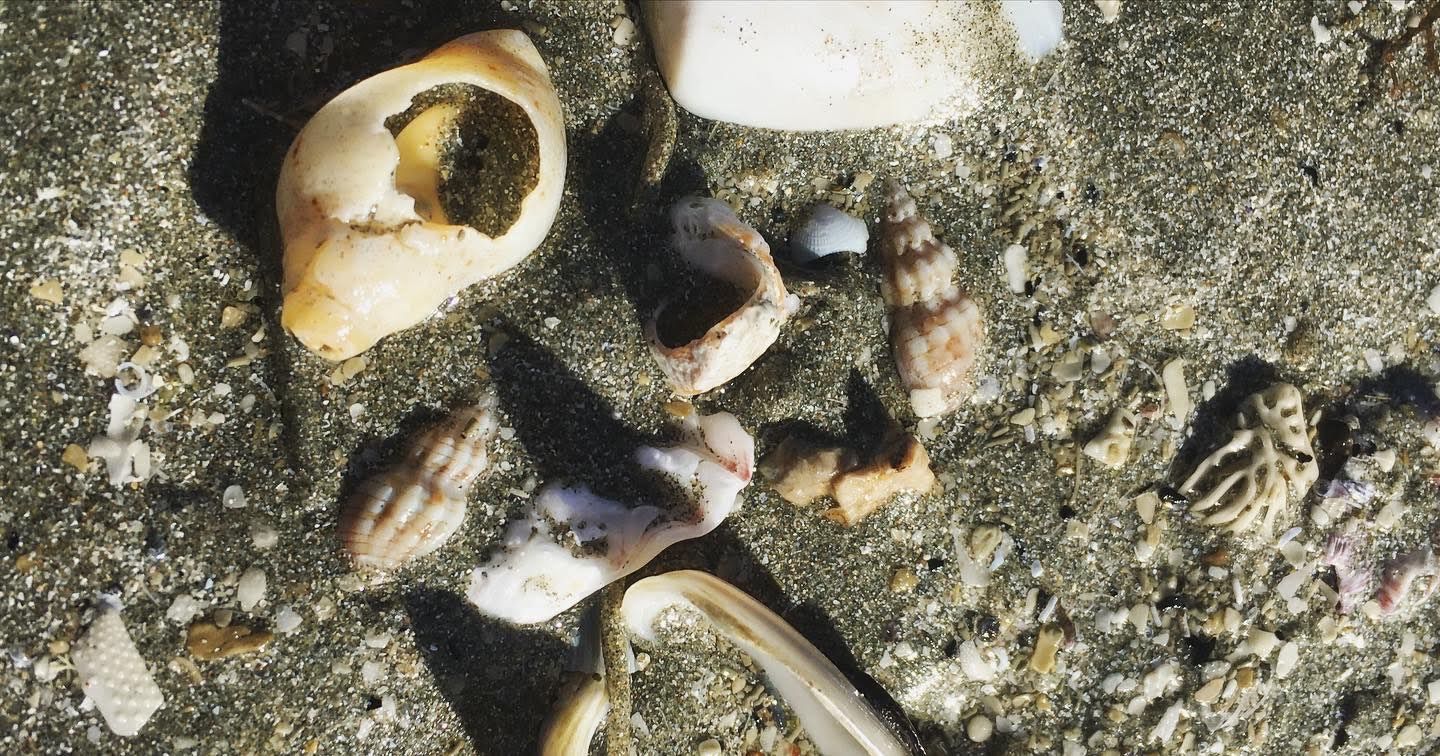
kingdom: Animalia
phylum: Mollusca
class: Gastropoda
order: Neogastropoda
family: Cominellidae
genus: Cominella
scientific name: Cominella quoyana
